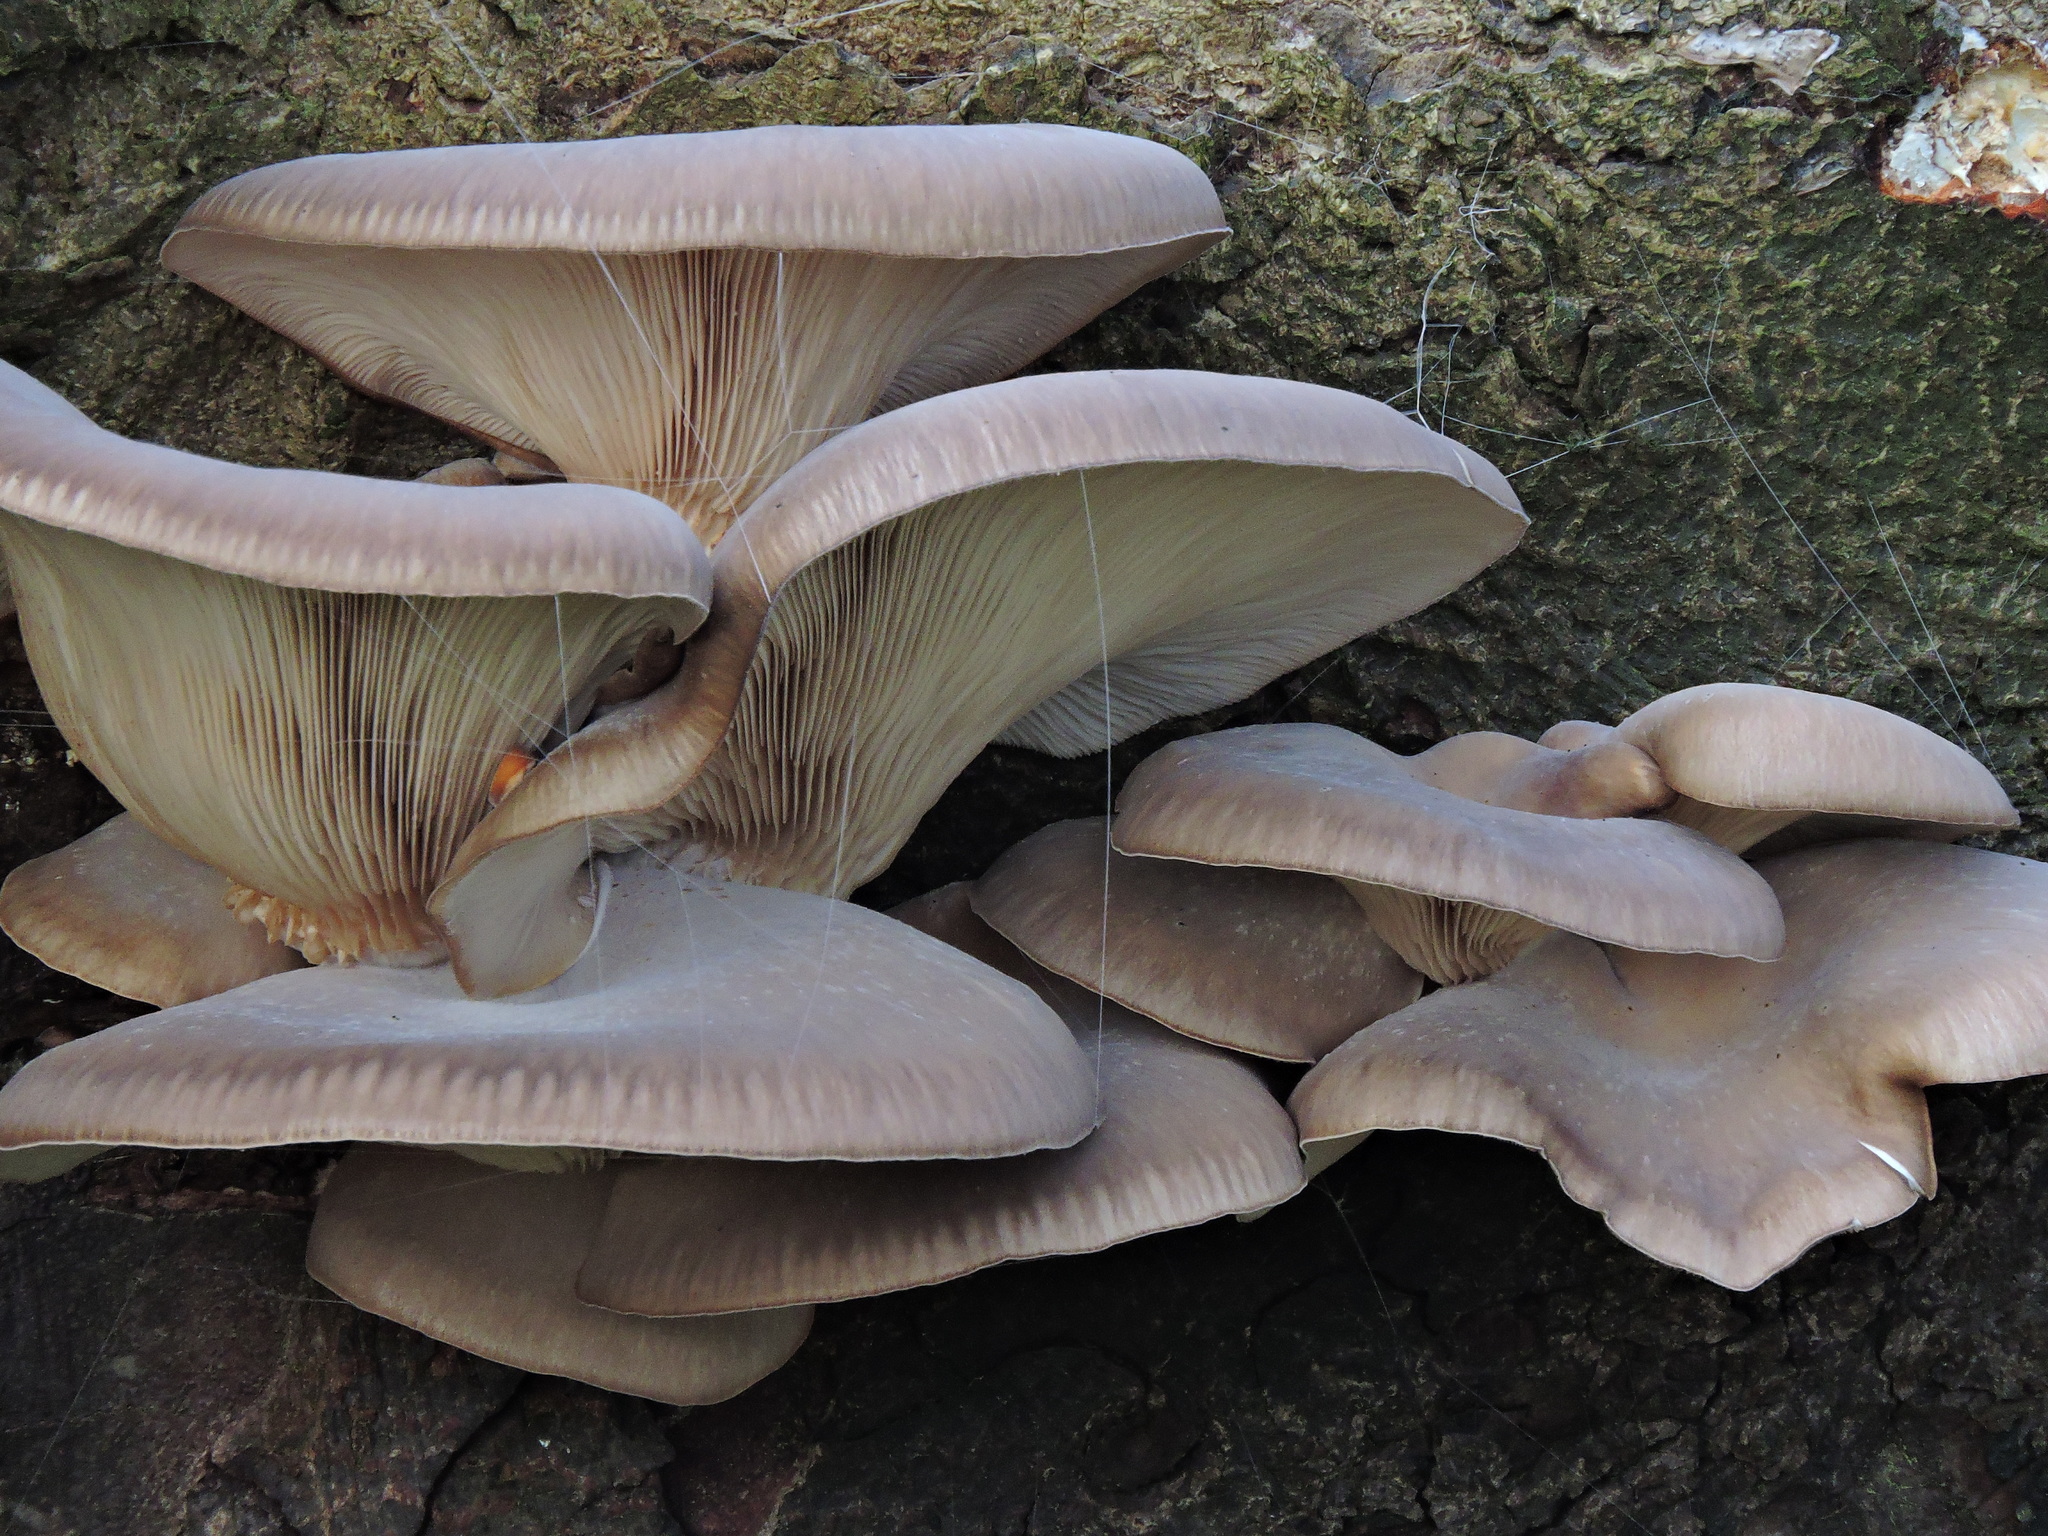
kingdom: Fungi
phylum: Basidiomycota
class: Agaricomycetes
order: Agaricales
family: Pleurotaceae
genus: Pleurotus
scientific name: Pleurotus ostreatus
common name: Oyster mushroom
